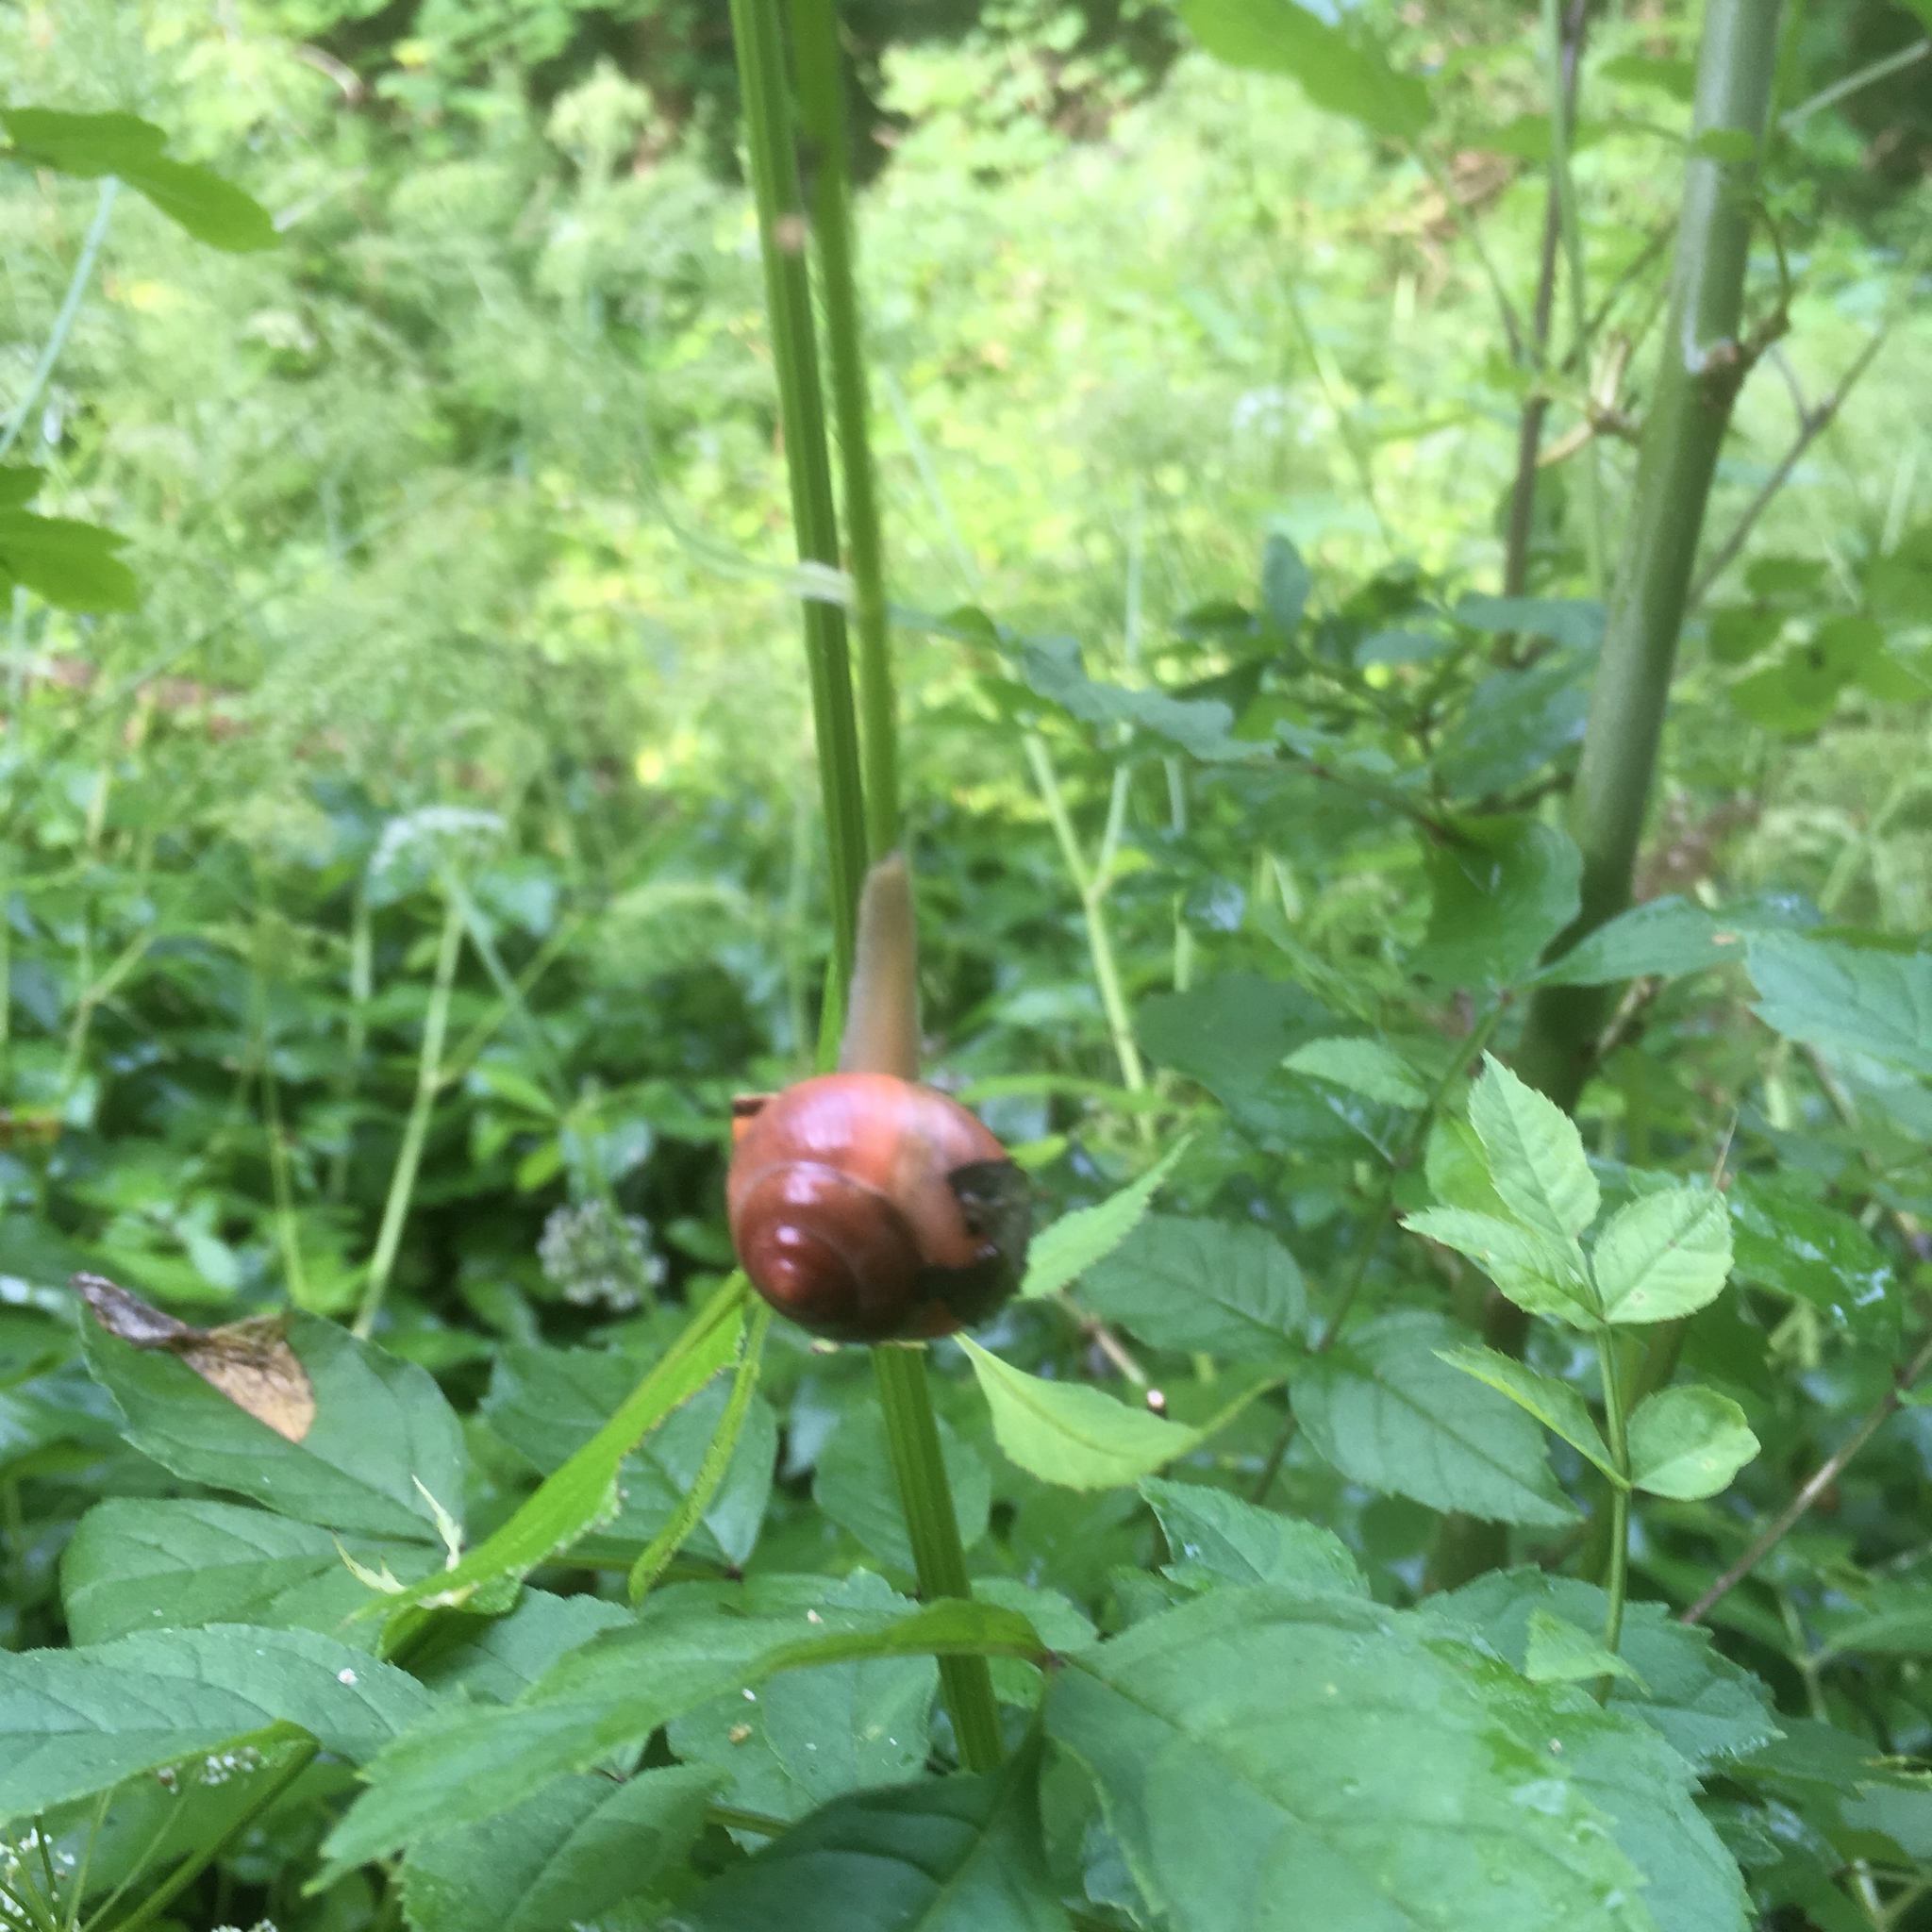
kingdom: Animalia
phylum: Mollusca
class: Gastropoda
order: Stylommatophora
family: Helicidae
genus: Cepaea
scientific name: Cepaea nemoralis
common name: Grovesnail
